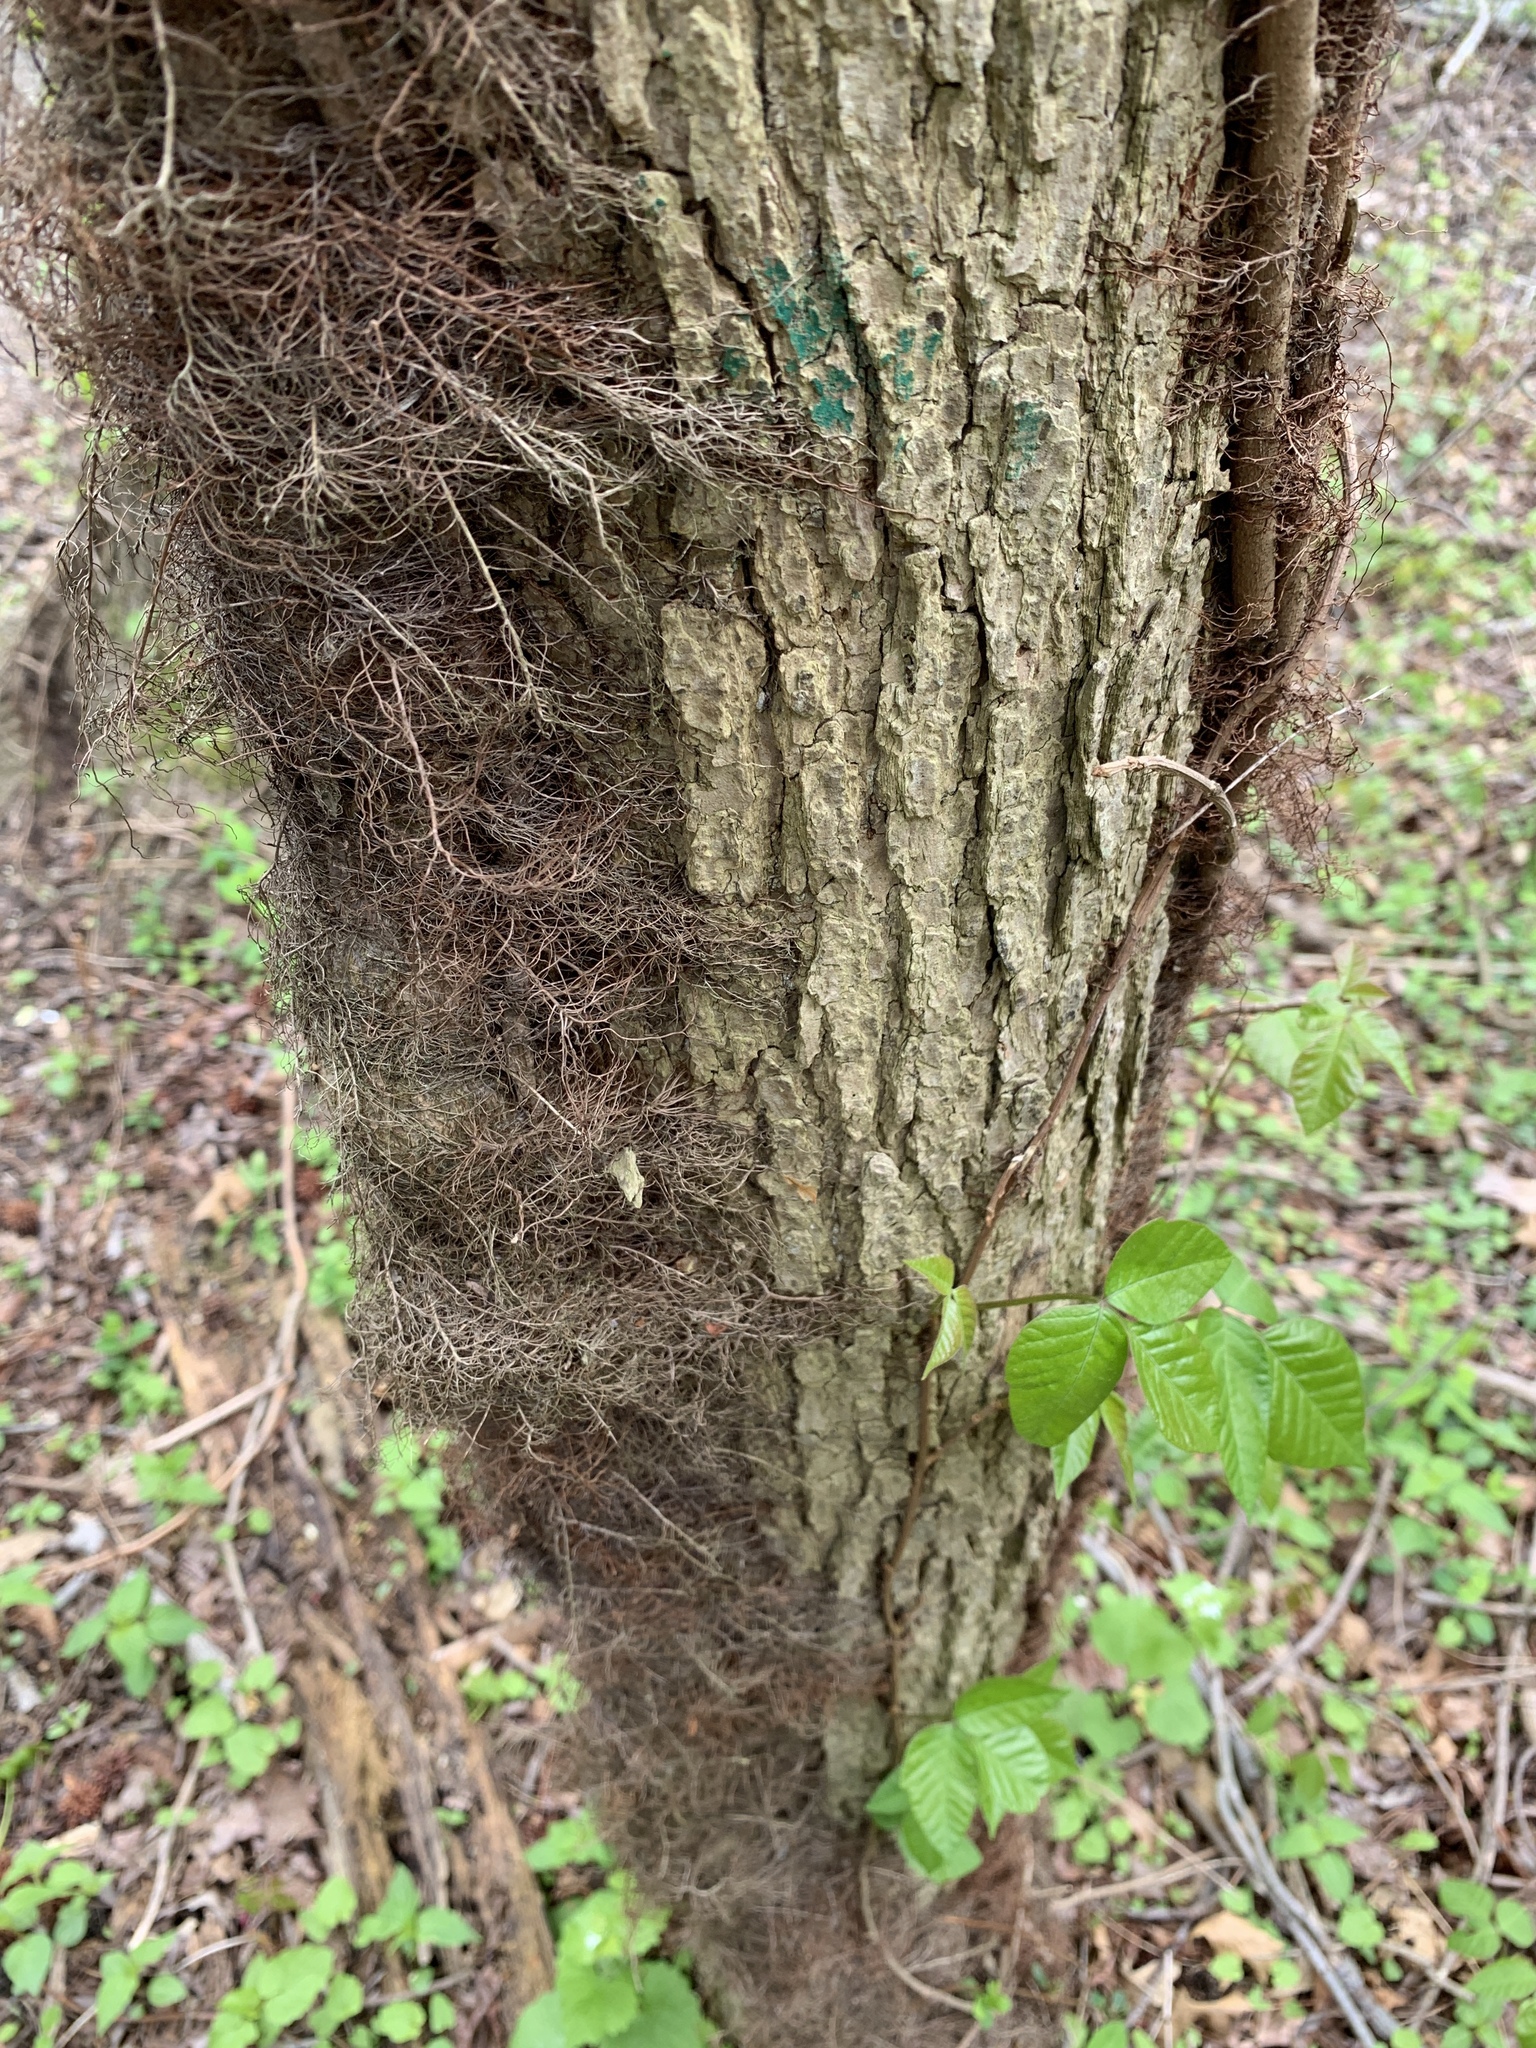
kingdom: Plantae
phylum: Tracheophyta
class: Magnoliopsida
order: Sapindales
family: Anacardiaceae
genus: Toxicodendron
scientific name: Toxicodendron radicans
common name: Poison ivy
